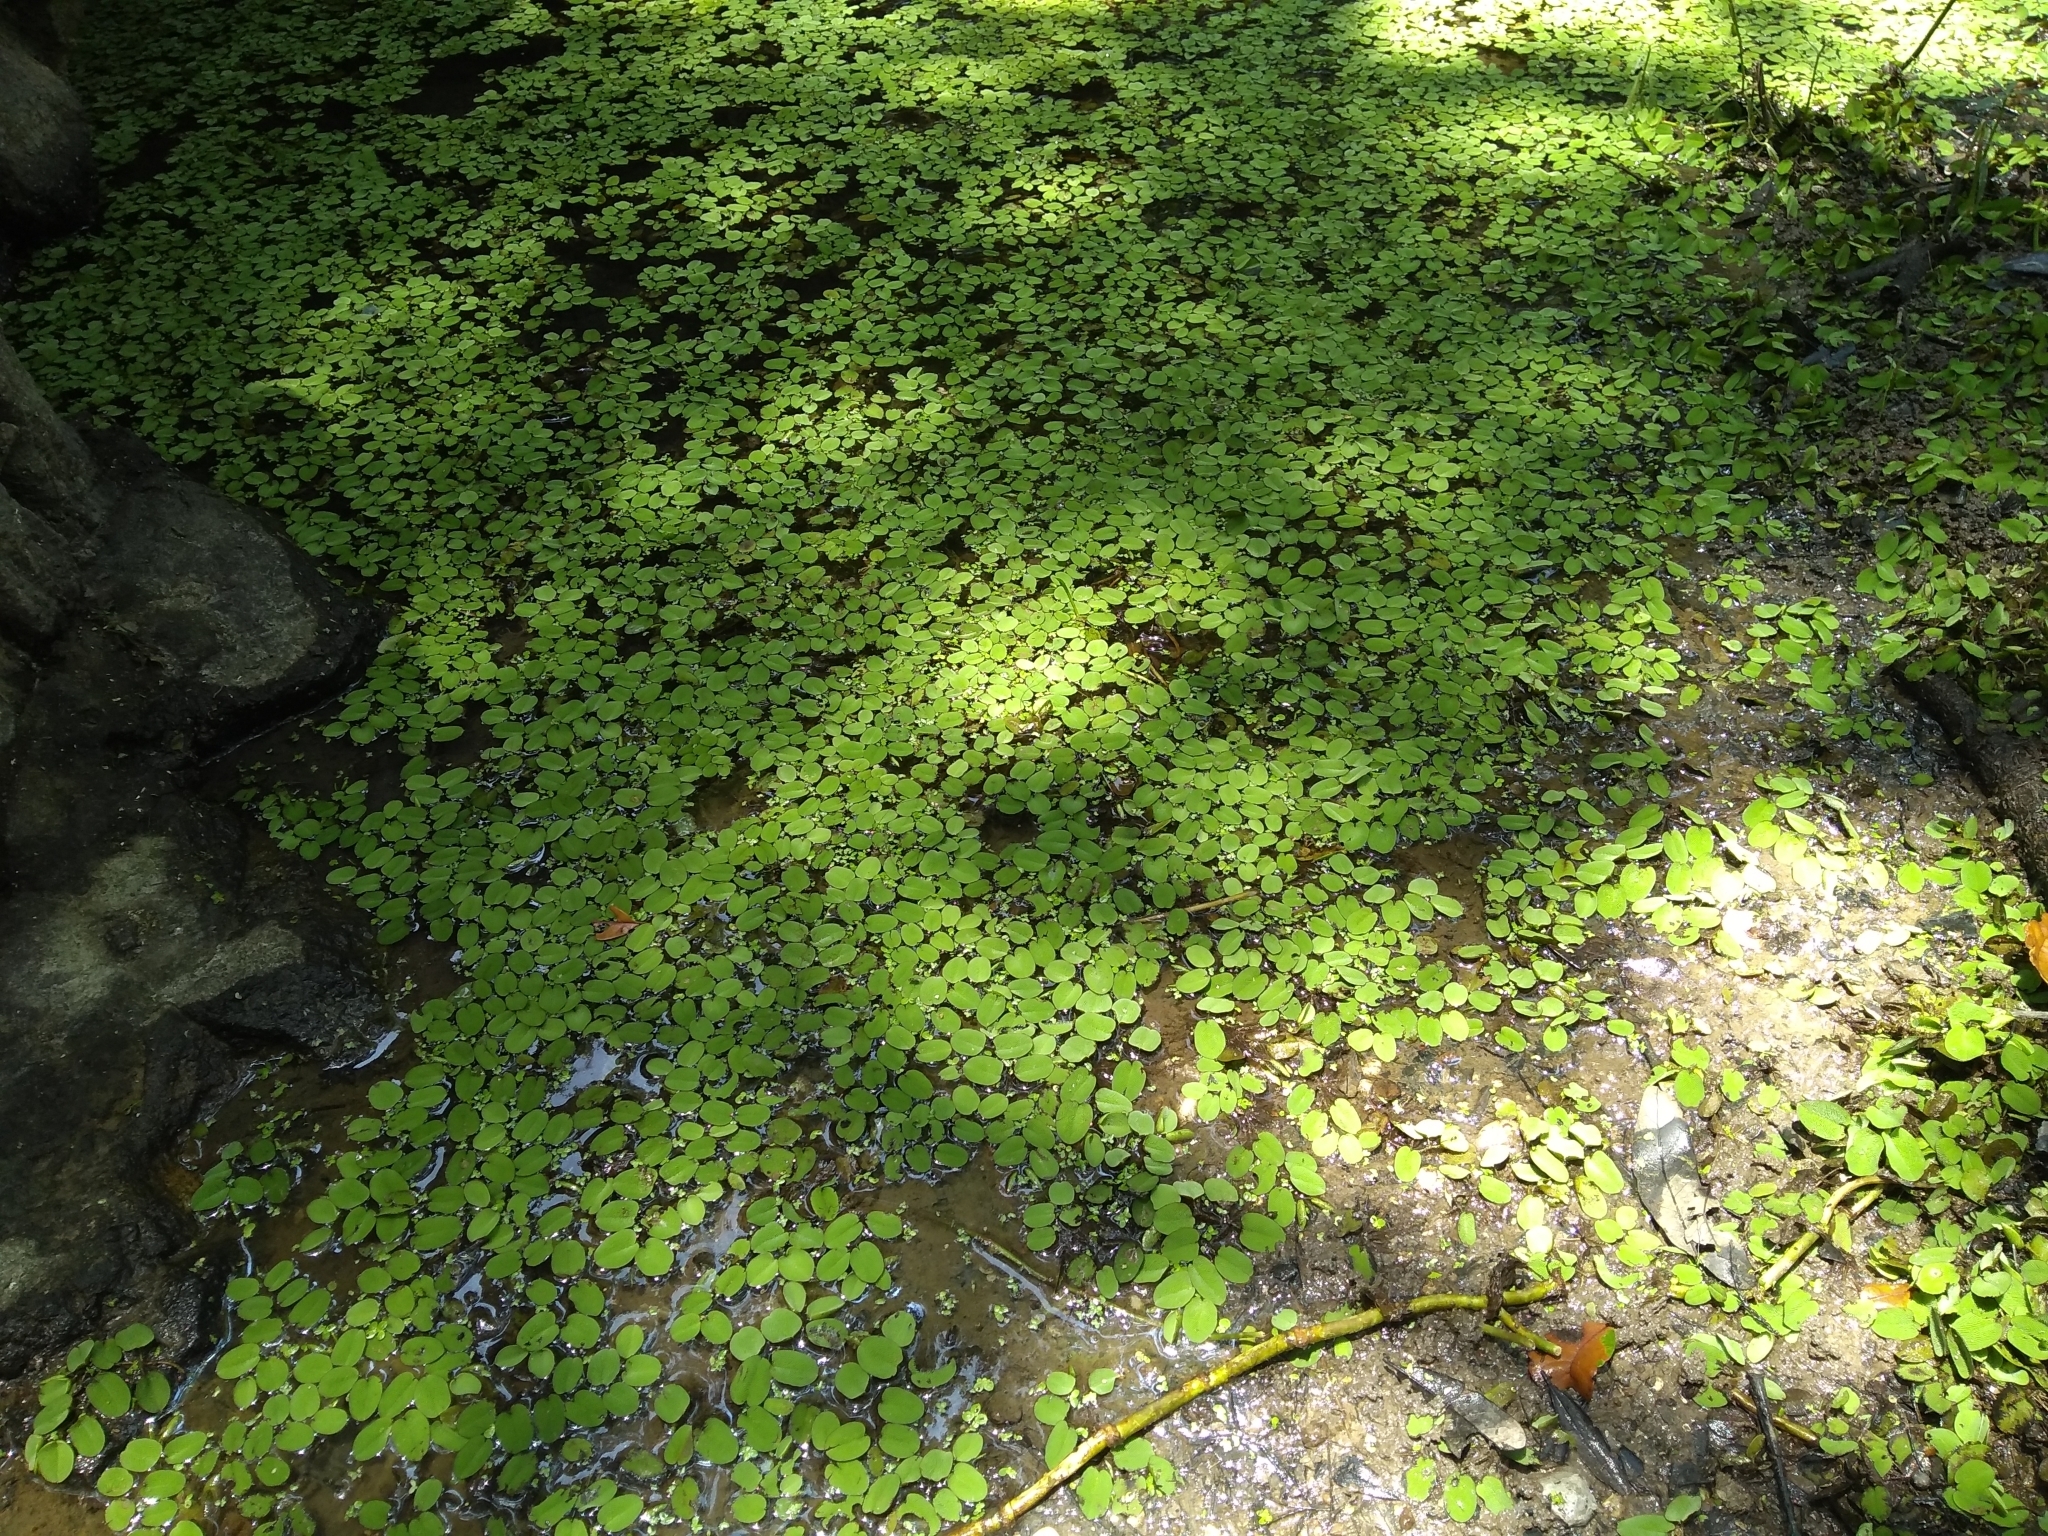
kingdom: Plantae
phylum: Tracheophyta
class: Polypodiopsida
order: Salviniales
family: Salviniaceae
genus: Salvinia
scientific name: Salvinia molesta
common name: Kariba weed
